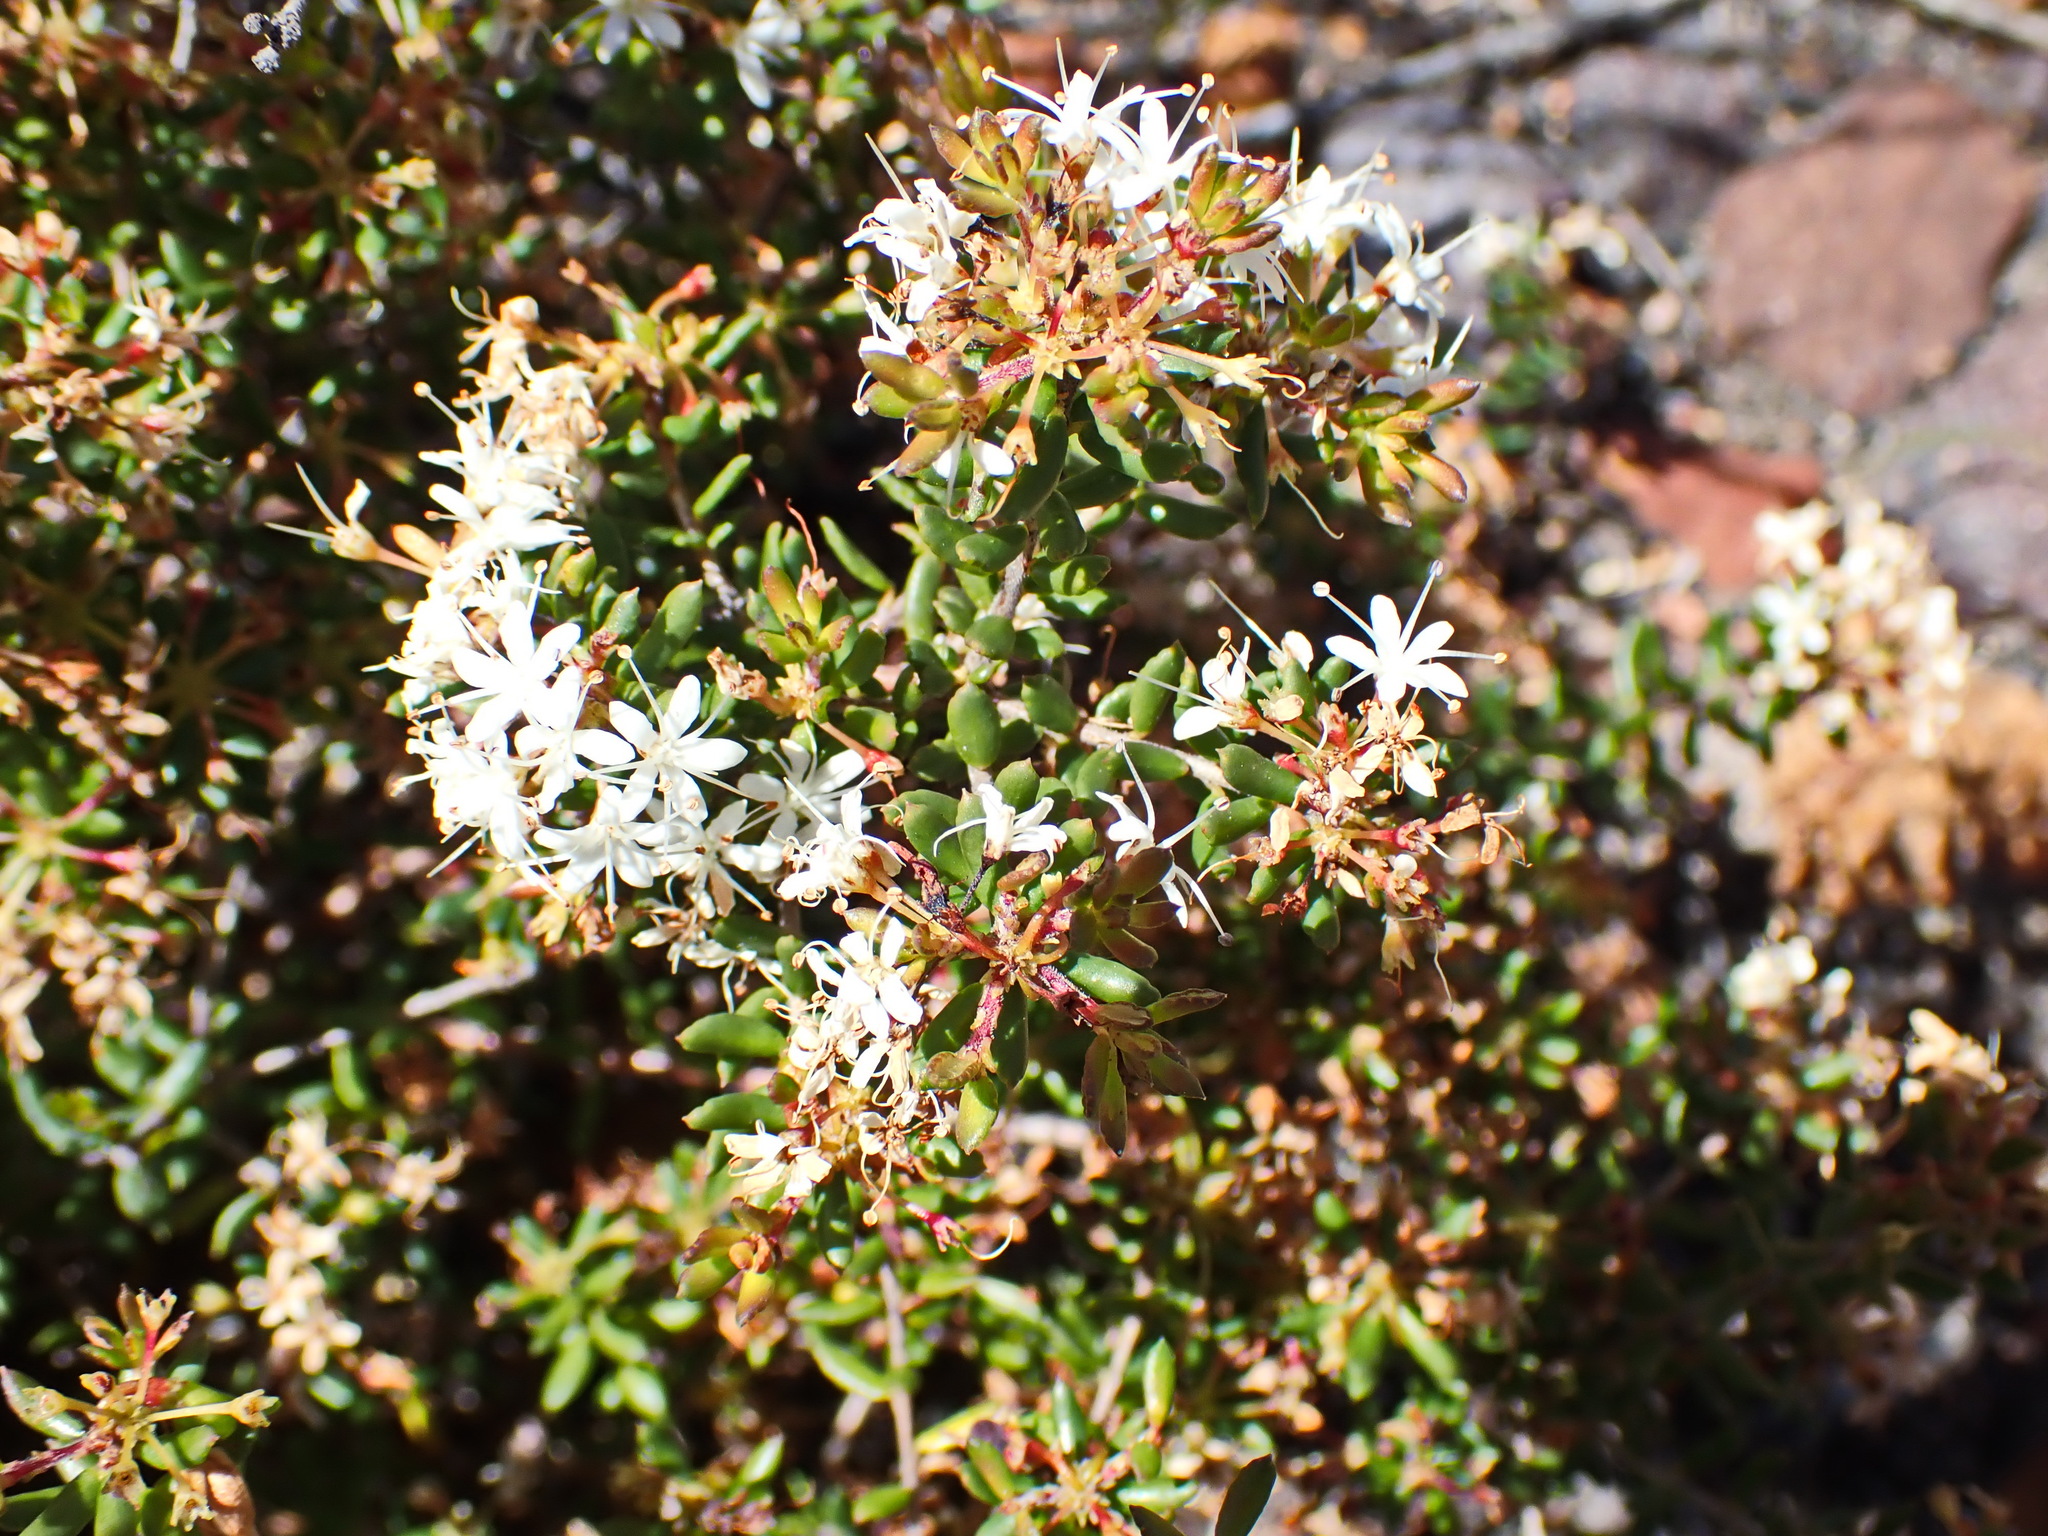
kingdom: Plantae
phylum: Tracheophyta
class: Magnoliopsida
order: Sapindales
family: Rutaceae
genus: Agathosma
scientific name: Agathosma mundtii
